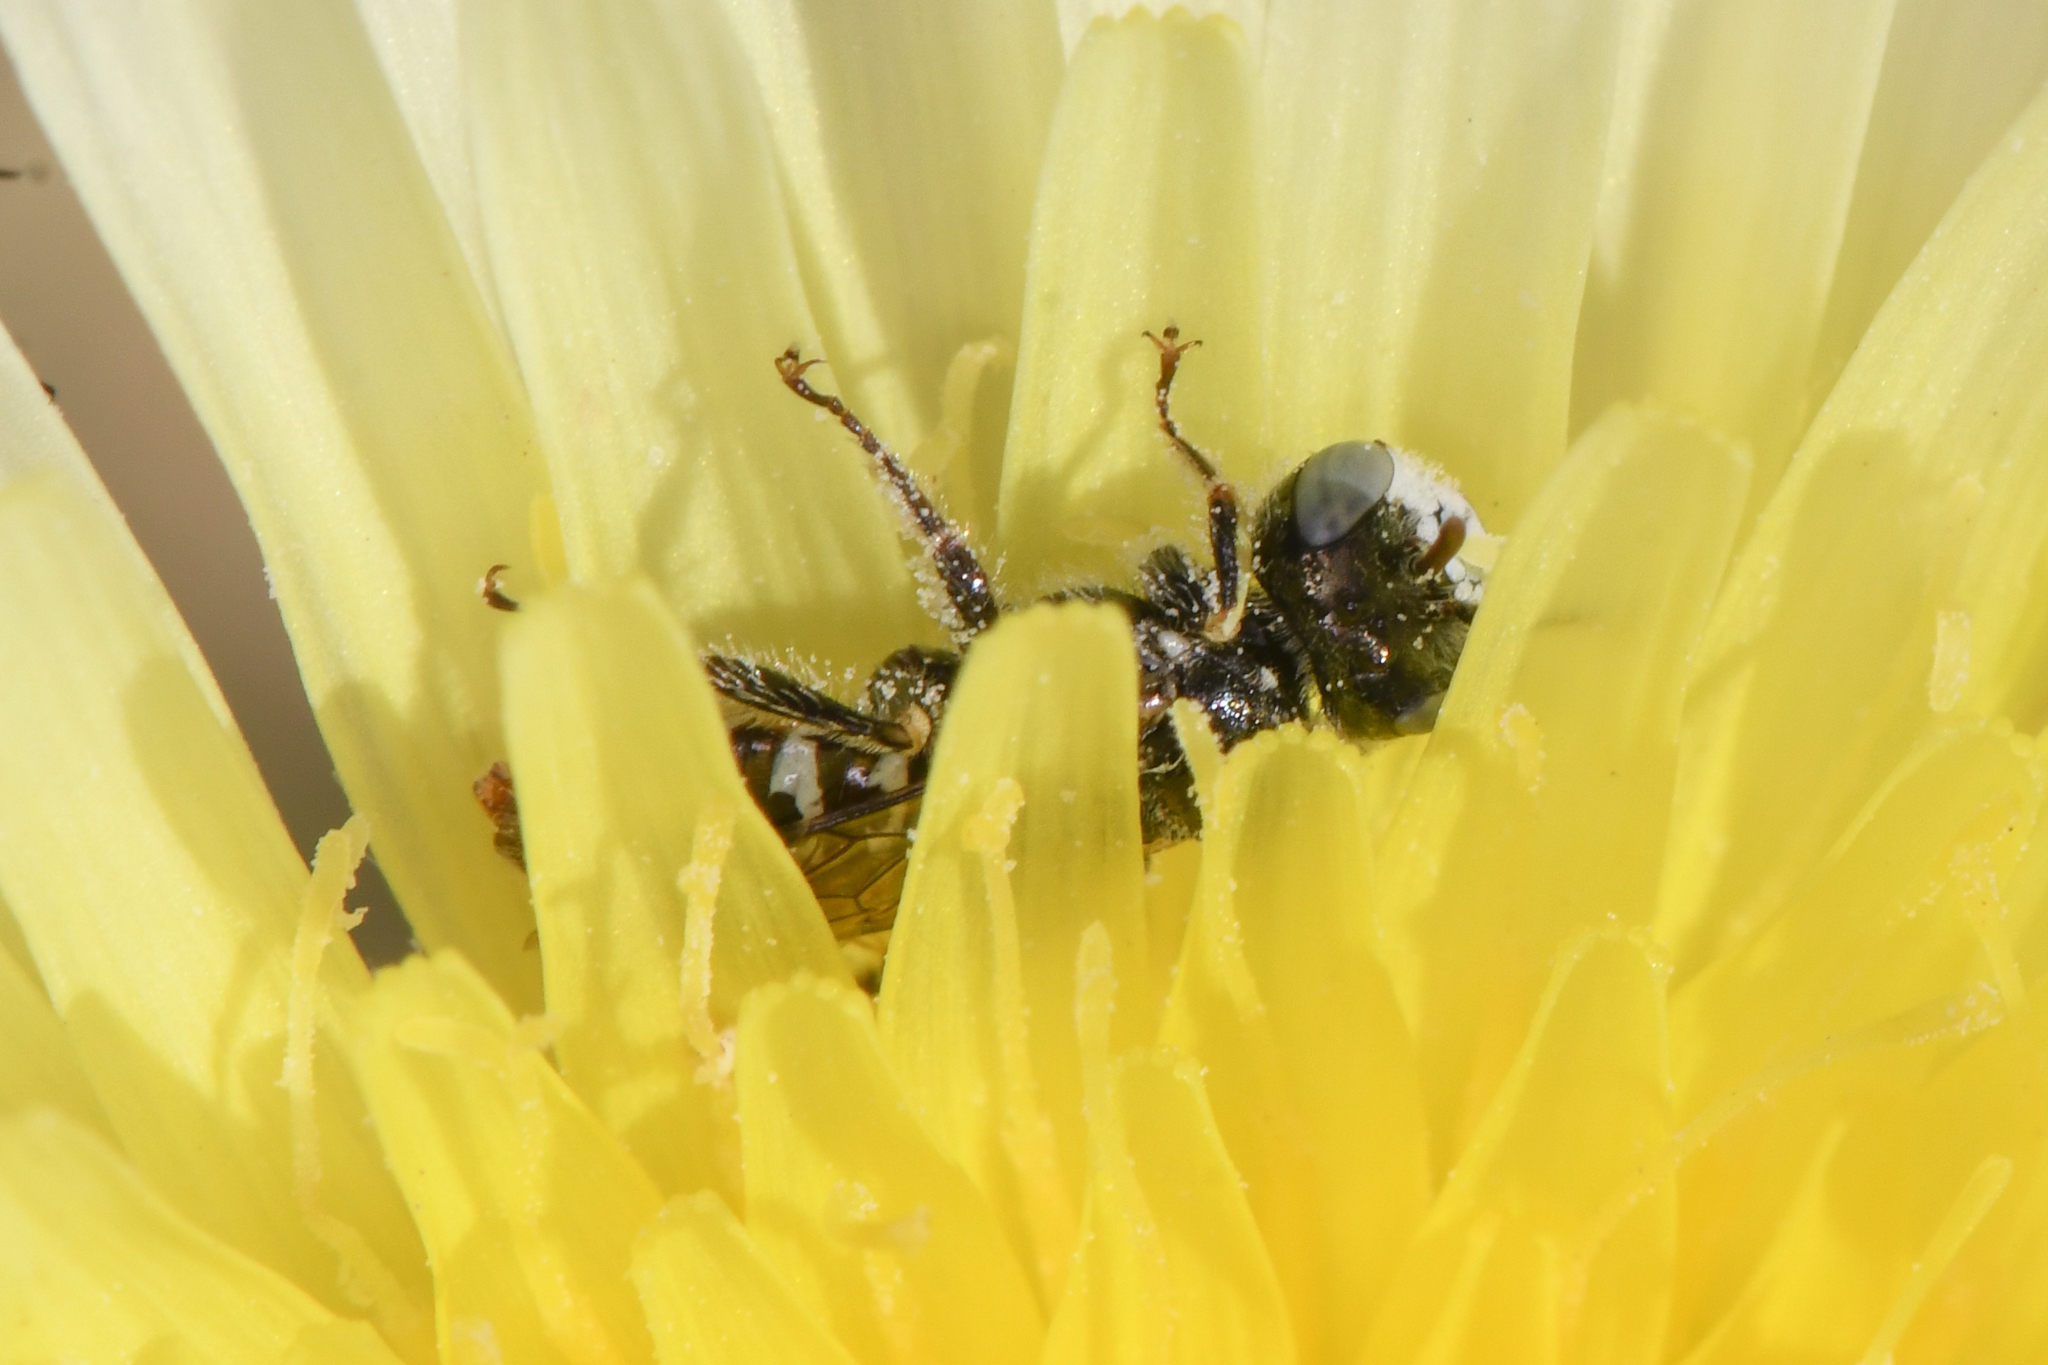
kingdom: Animalia
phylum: Arthropoda
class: Insecta
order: Hymenoptera
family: Andrenidae
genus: Perdita
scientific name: Perdita malacothricis
